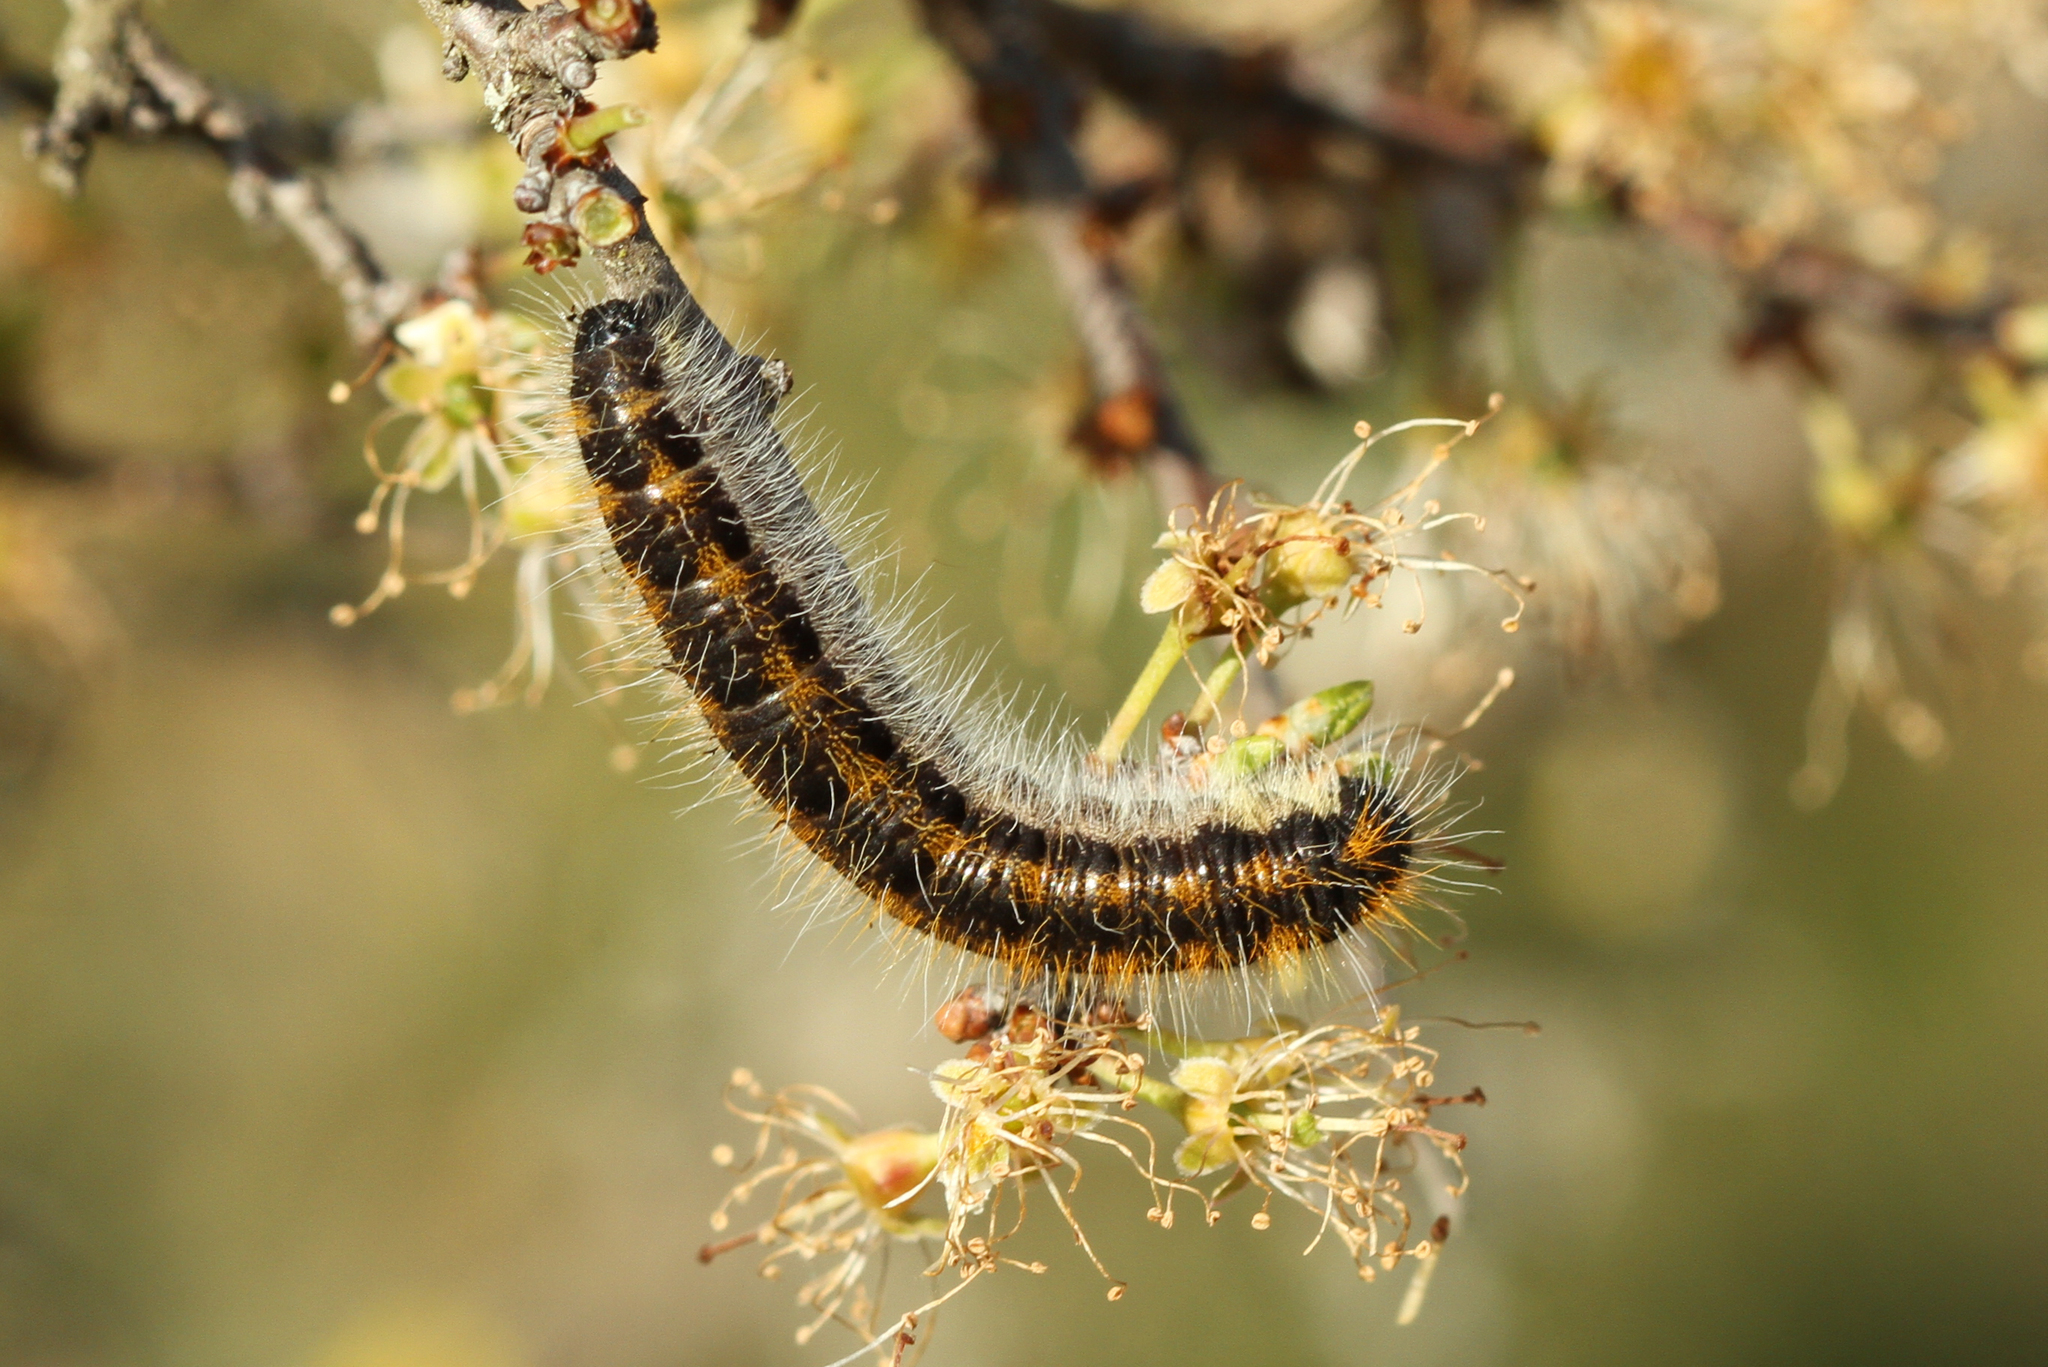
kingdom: Animalia
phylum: Arthropoda
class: Insecta
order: Lepidoptera
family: Pieridae
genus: Aporia
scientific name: Aporia crataegi
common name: Black-veined white
